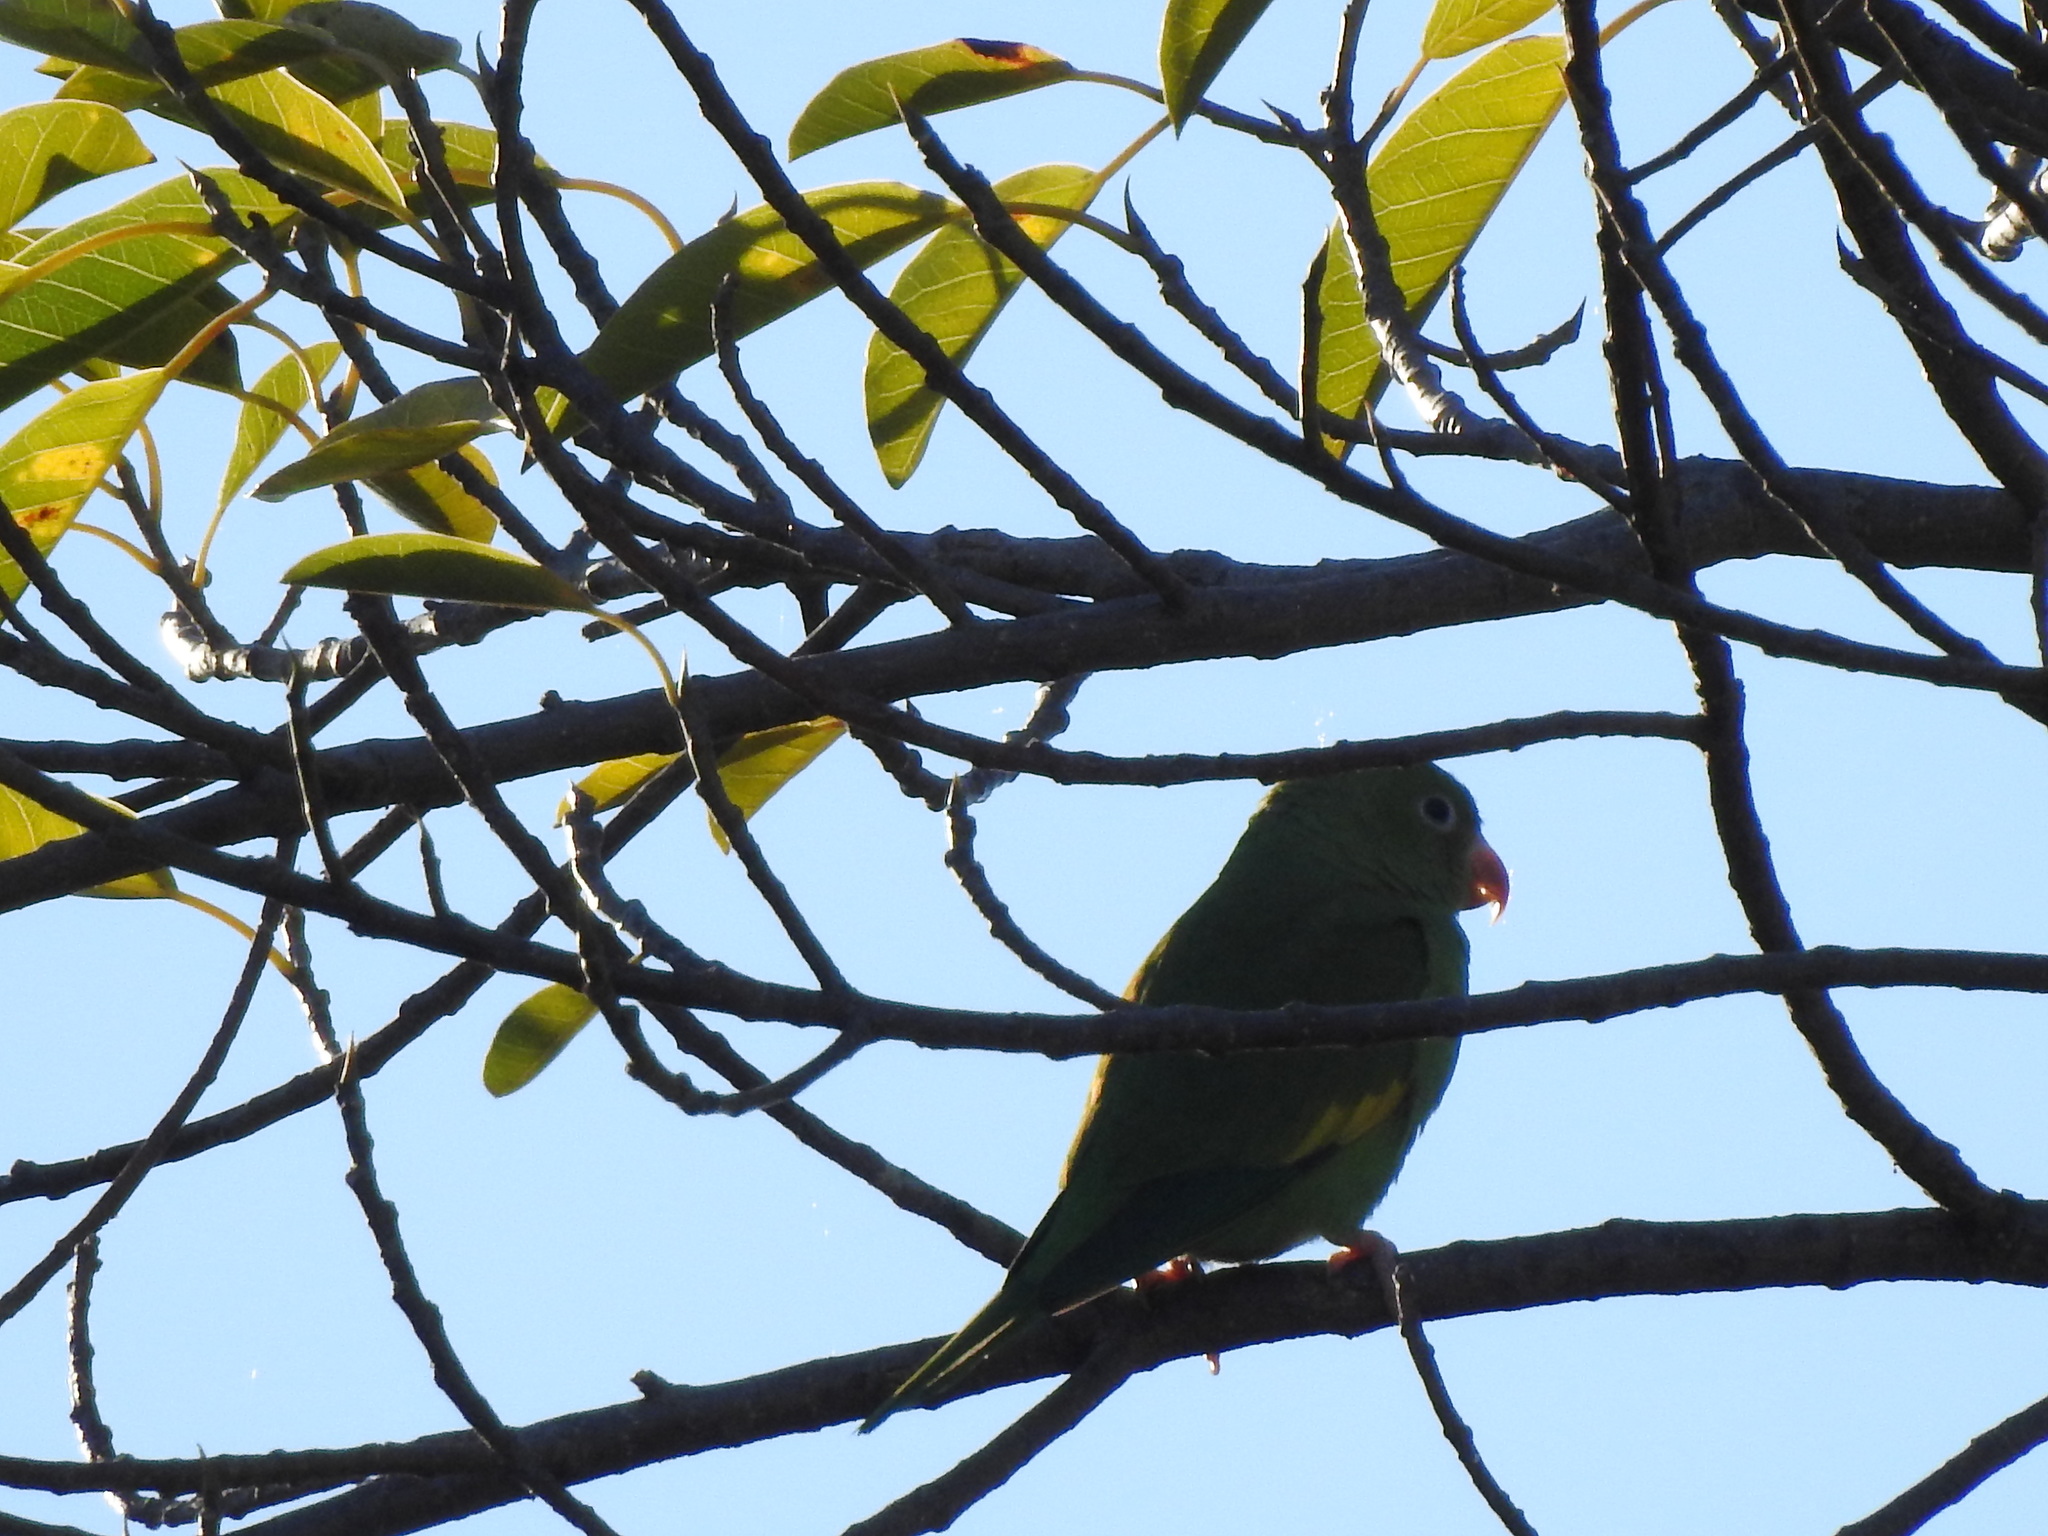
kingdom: Animalia
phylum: Chordata
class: Aves
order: Psittaciformes
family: Psittacidae
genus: Brotogeris
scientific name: Brotogeris chiriri
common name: Yellow-chevroned parakeet
